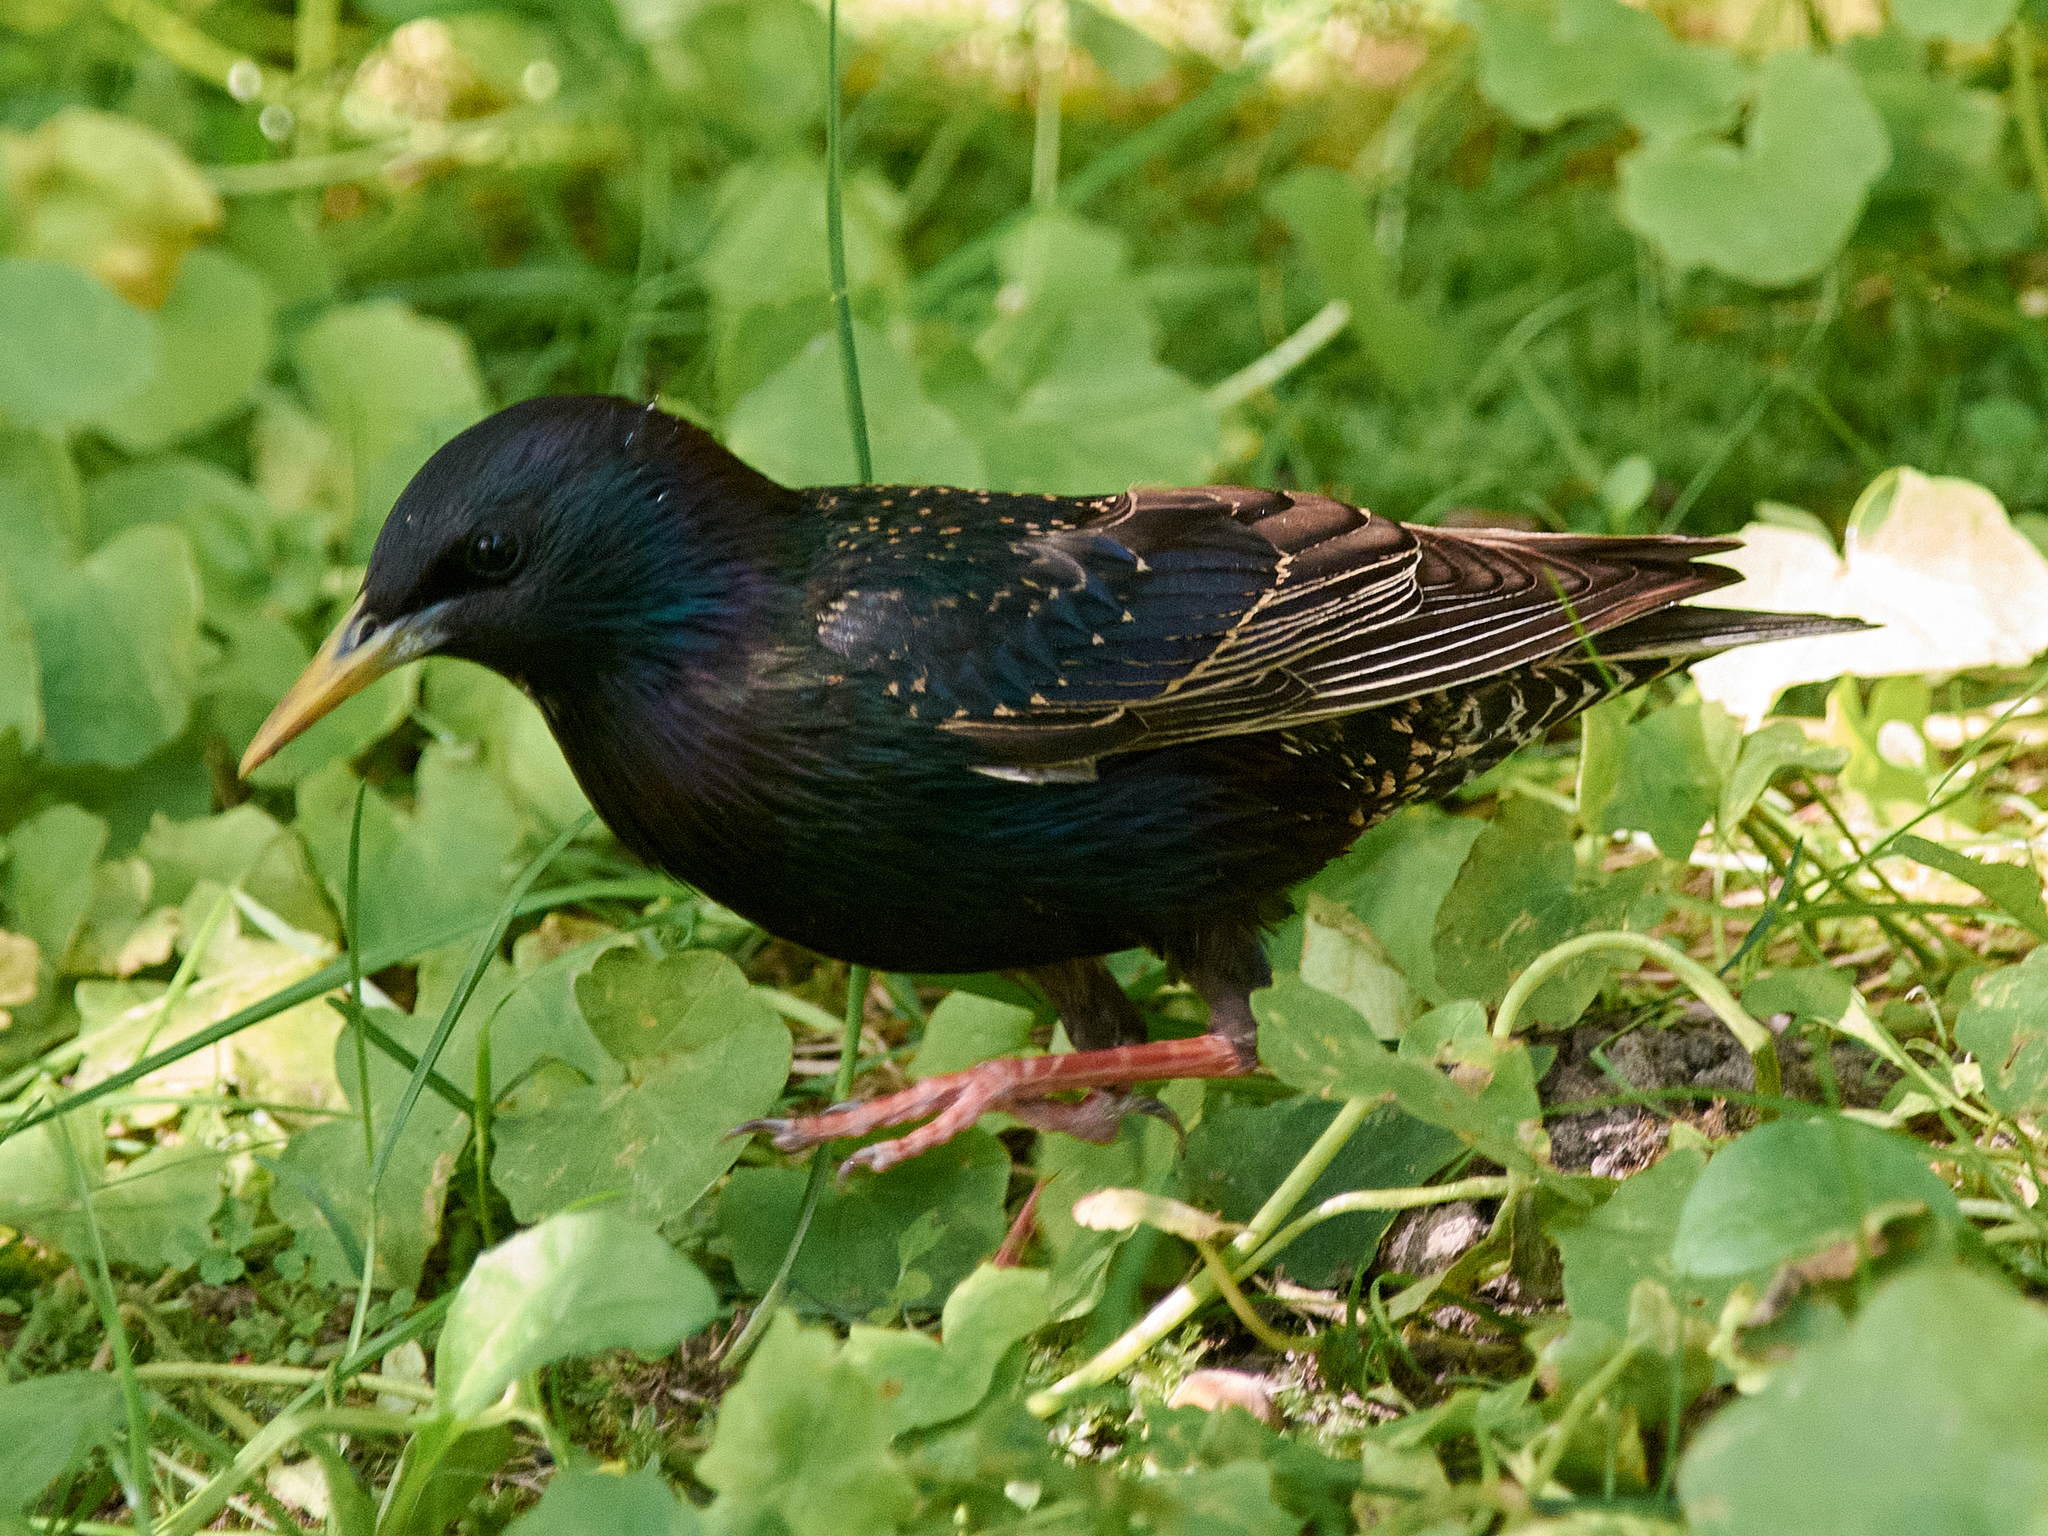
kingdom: Animalia
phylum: Chordata
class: Aves
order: Passeriformes
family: Sturnidae
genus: Sturnus
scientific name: Sturnus vulgaris
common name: Common starling
